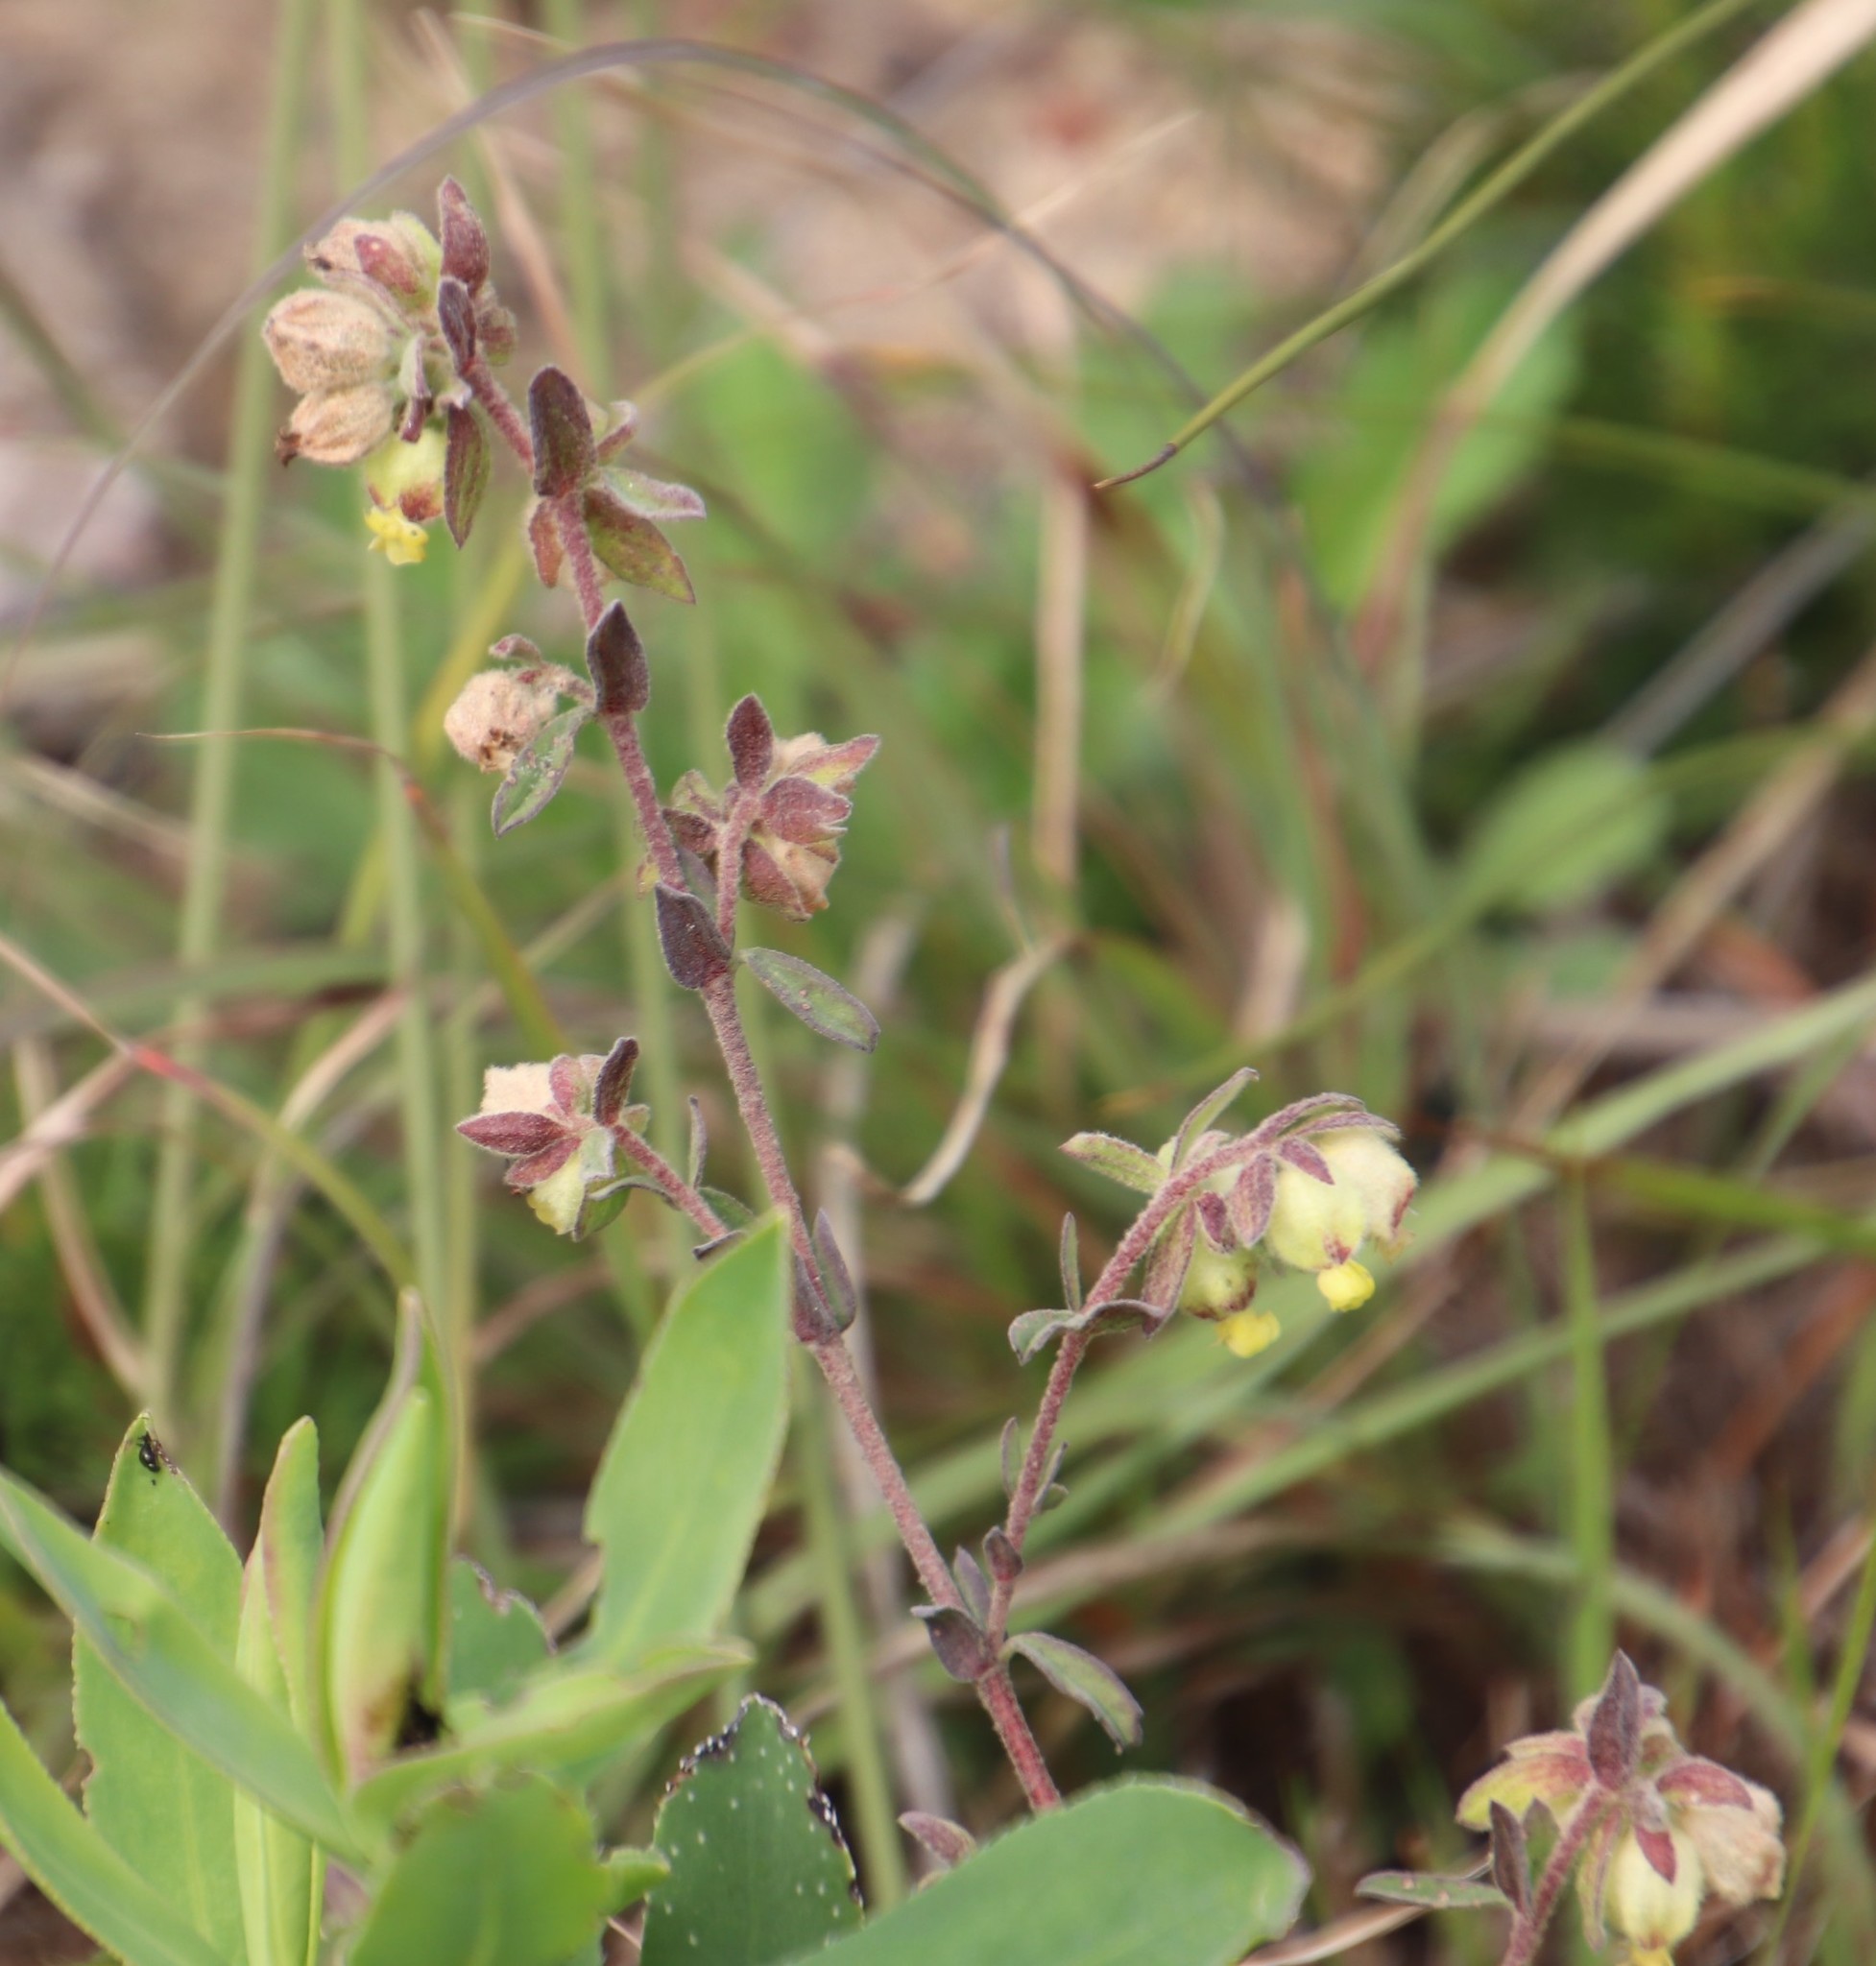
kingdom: Plantae
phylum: Tracheophyta
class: Magnoliopsida
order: Malvales
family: Malvaceae
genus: Hermannia
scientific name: Hermannia hyssopifolia
